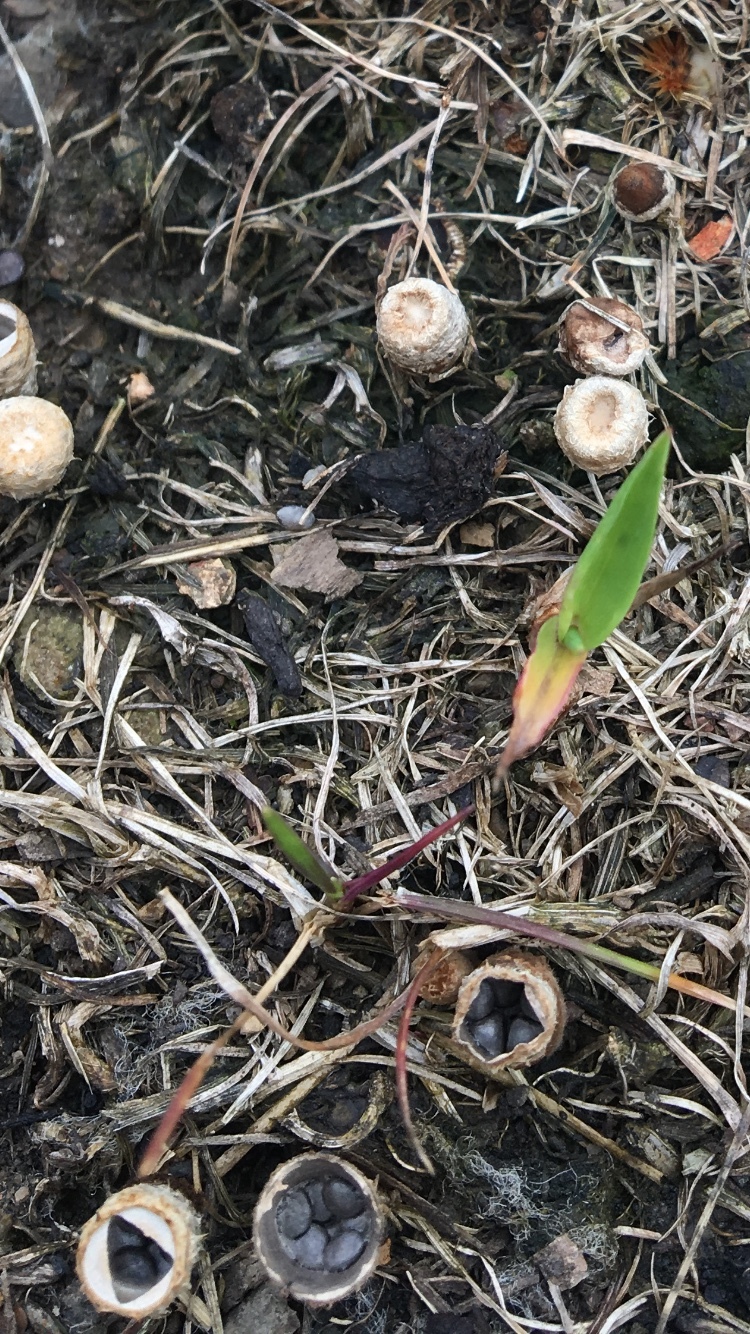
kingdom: Fungi
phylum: Basidiomycota
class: Agaricomycetes
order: Agaricales
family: Agaricaceae
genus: Cyathus
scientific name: Cyathus stercoreus
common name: Dung bird's nest
